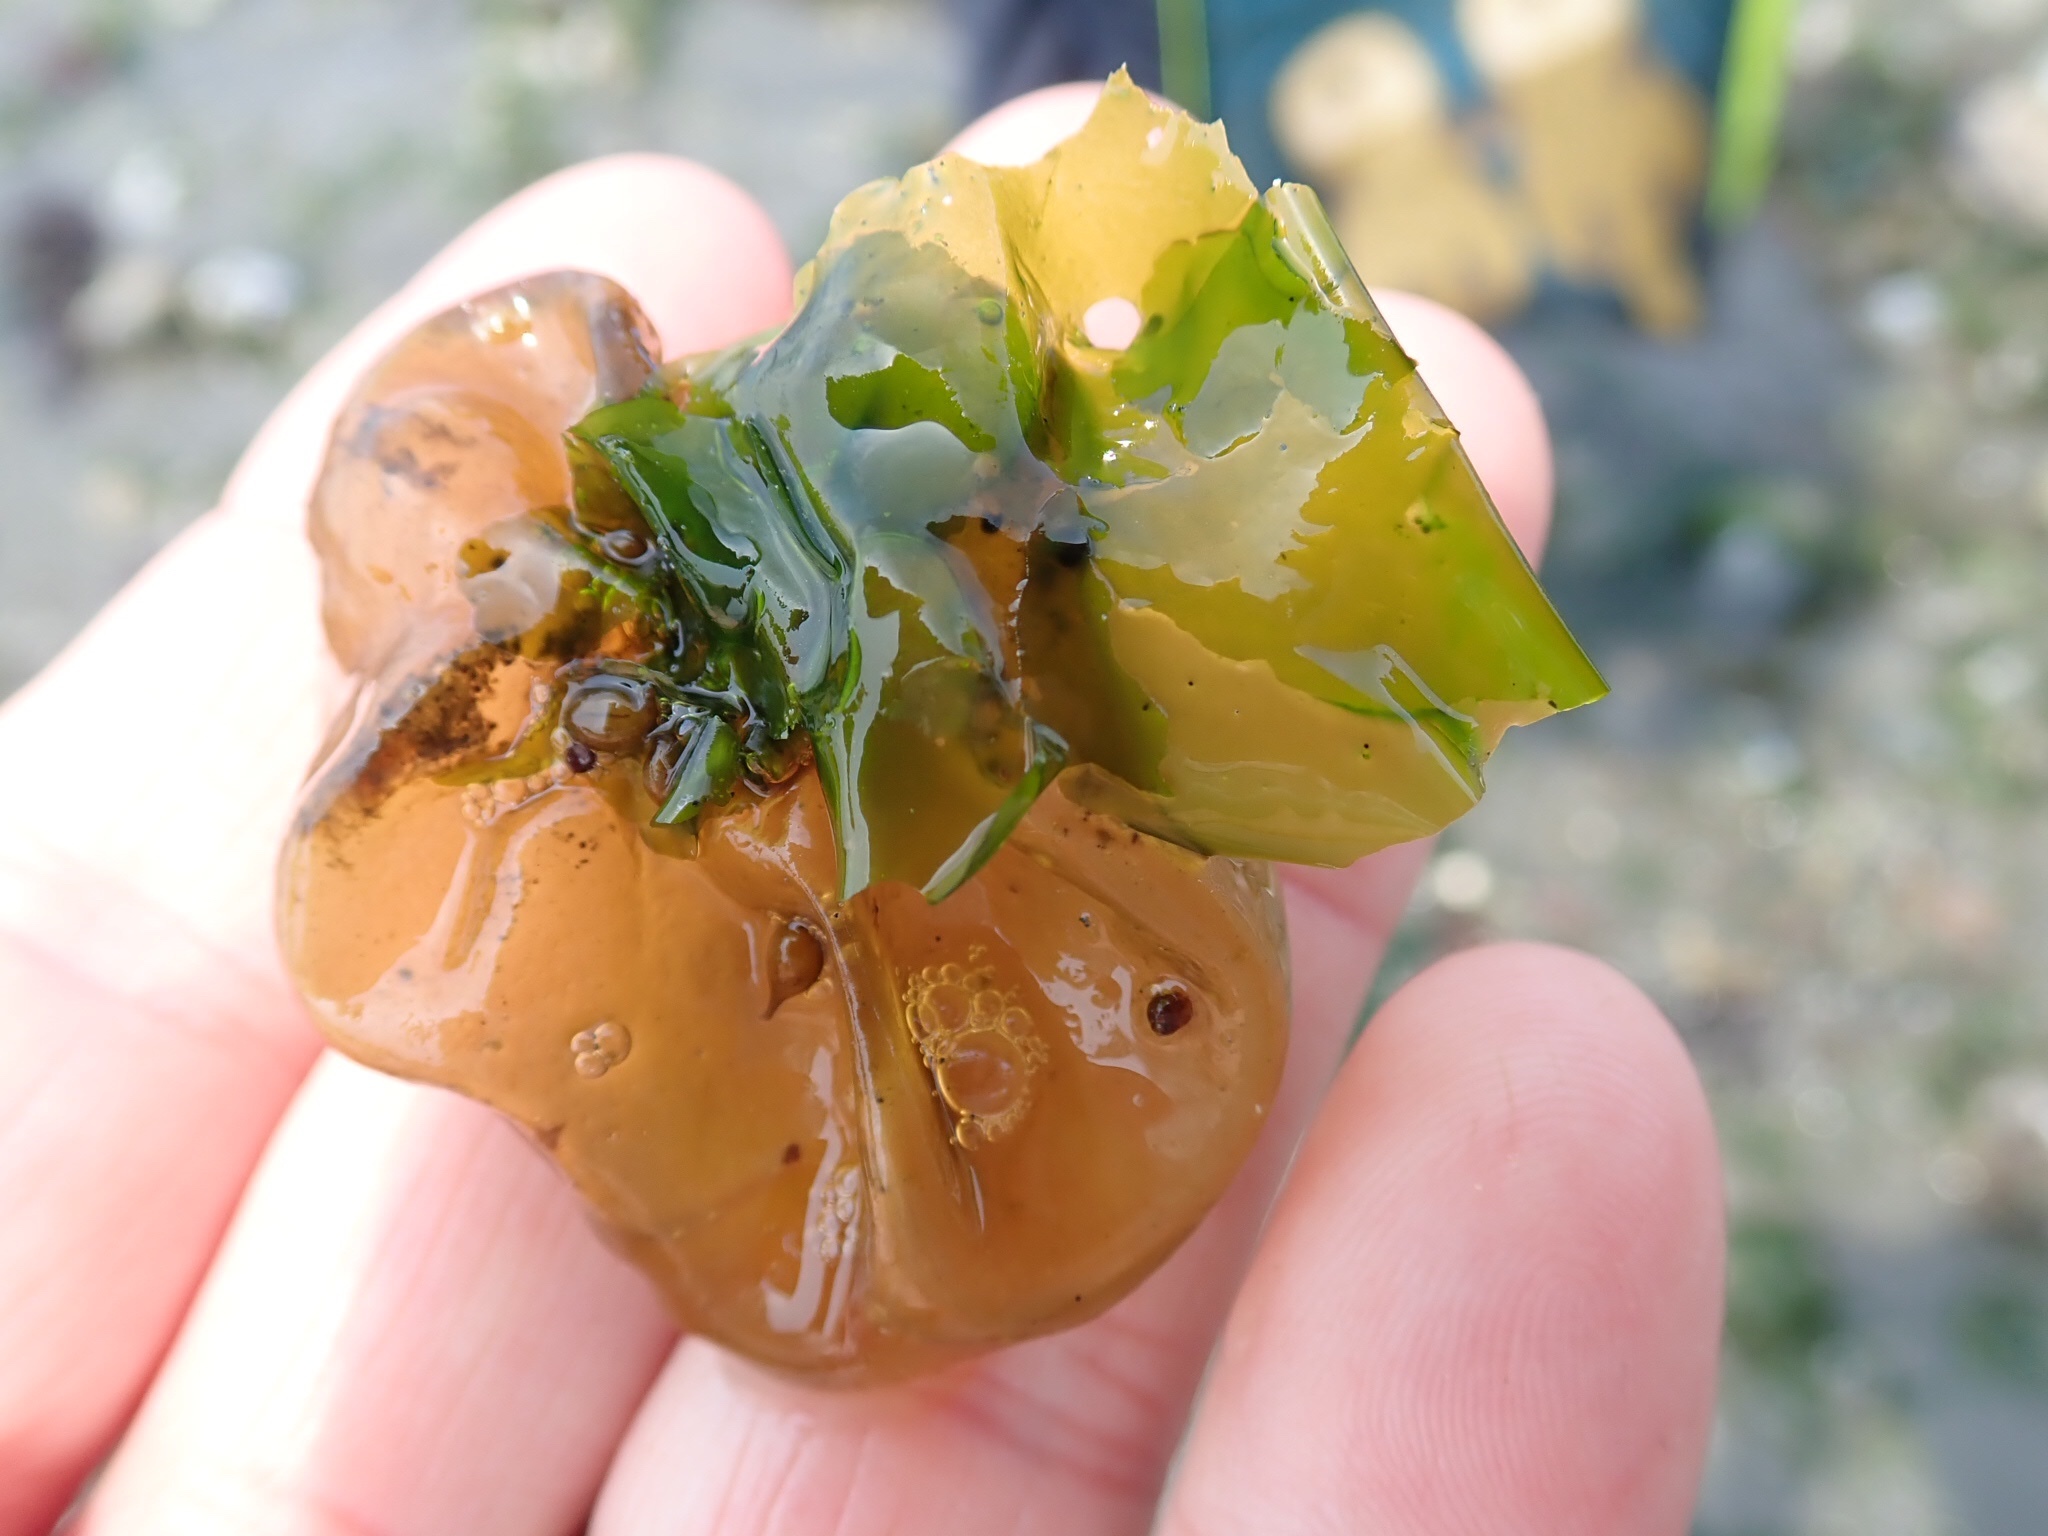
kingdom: Chromista
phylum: Ochrophyta
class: Phaeophyceae
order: Scytosiphonales
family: Scytosiphonaceae
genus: Colpomenia
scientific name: Colpomenia peregrina
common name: Oyster thief
